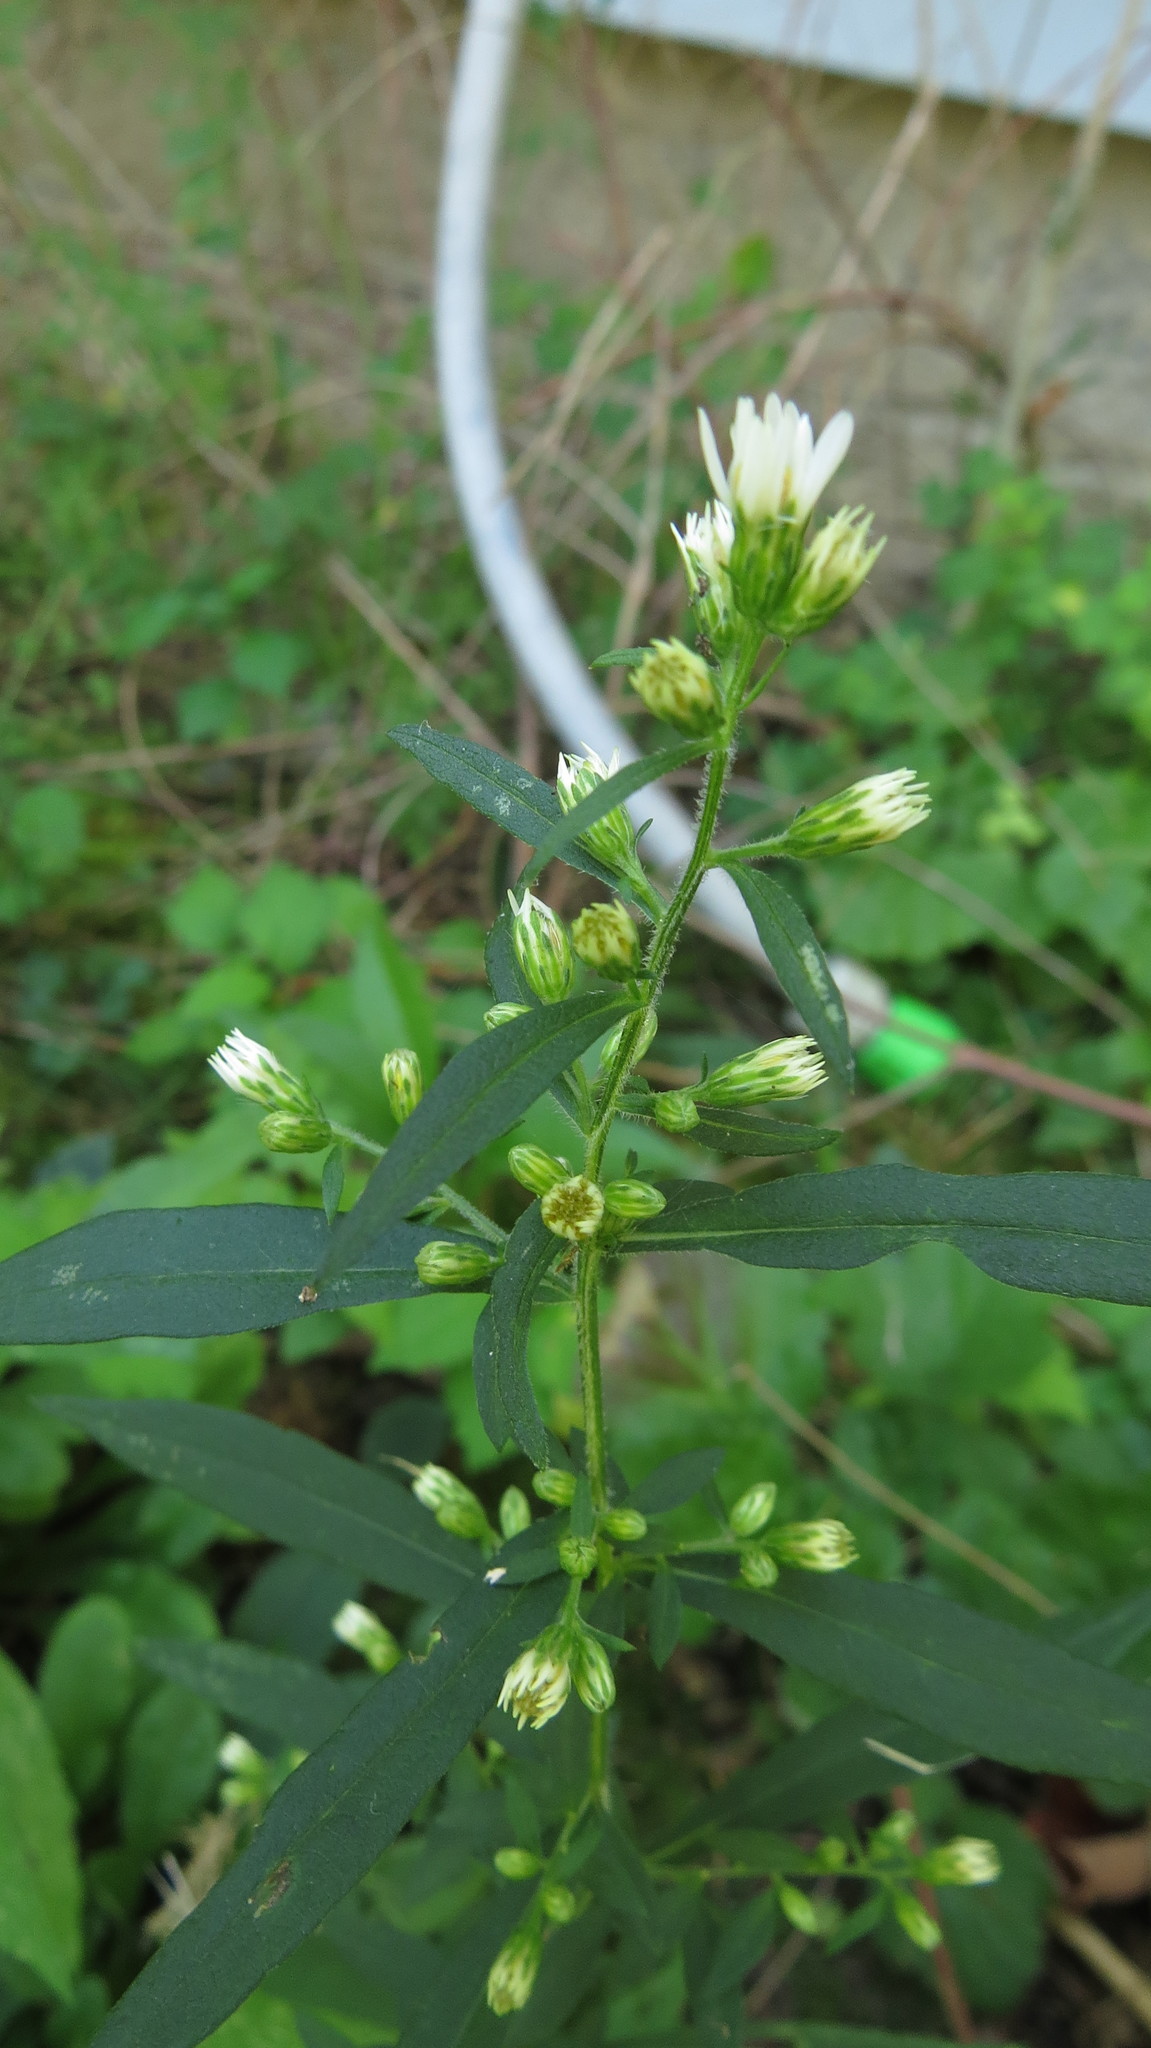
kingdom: Plantae
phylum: Tracheophyta
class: Magnoliopsida
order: Asterales
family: Asteraceae
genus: Solidago
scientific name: Solidago bicolor
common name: Silverrod
